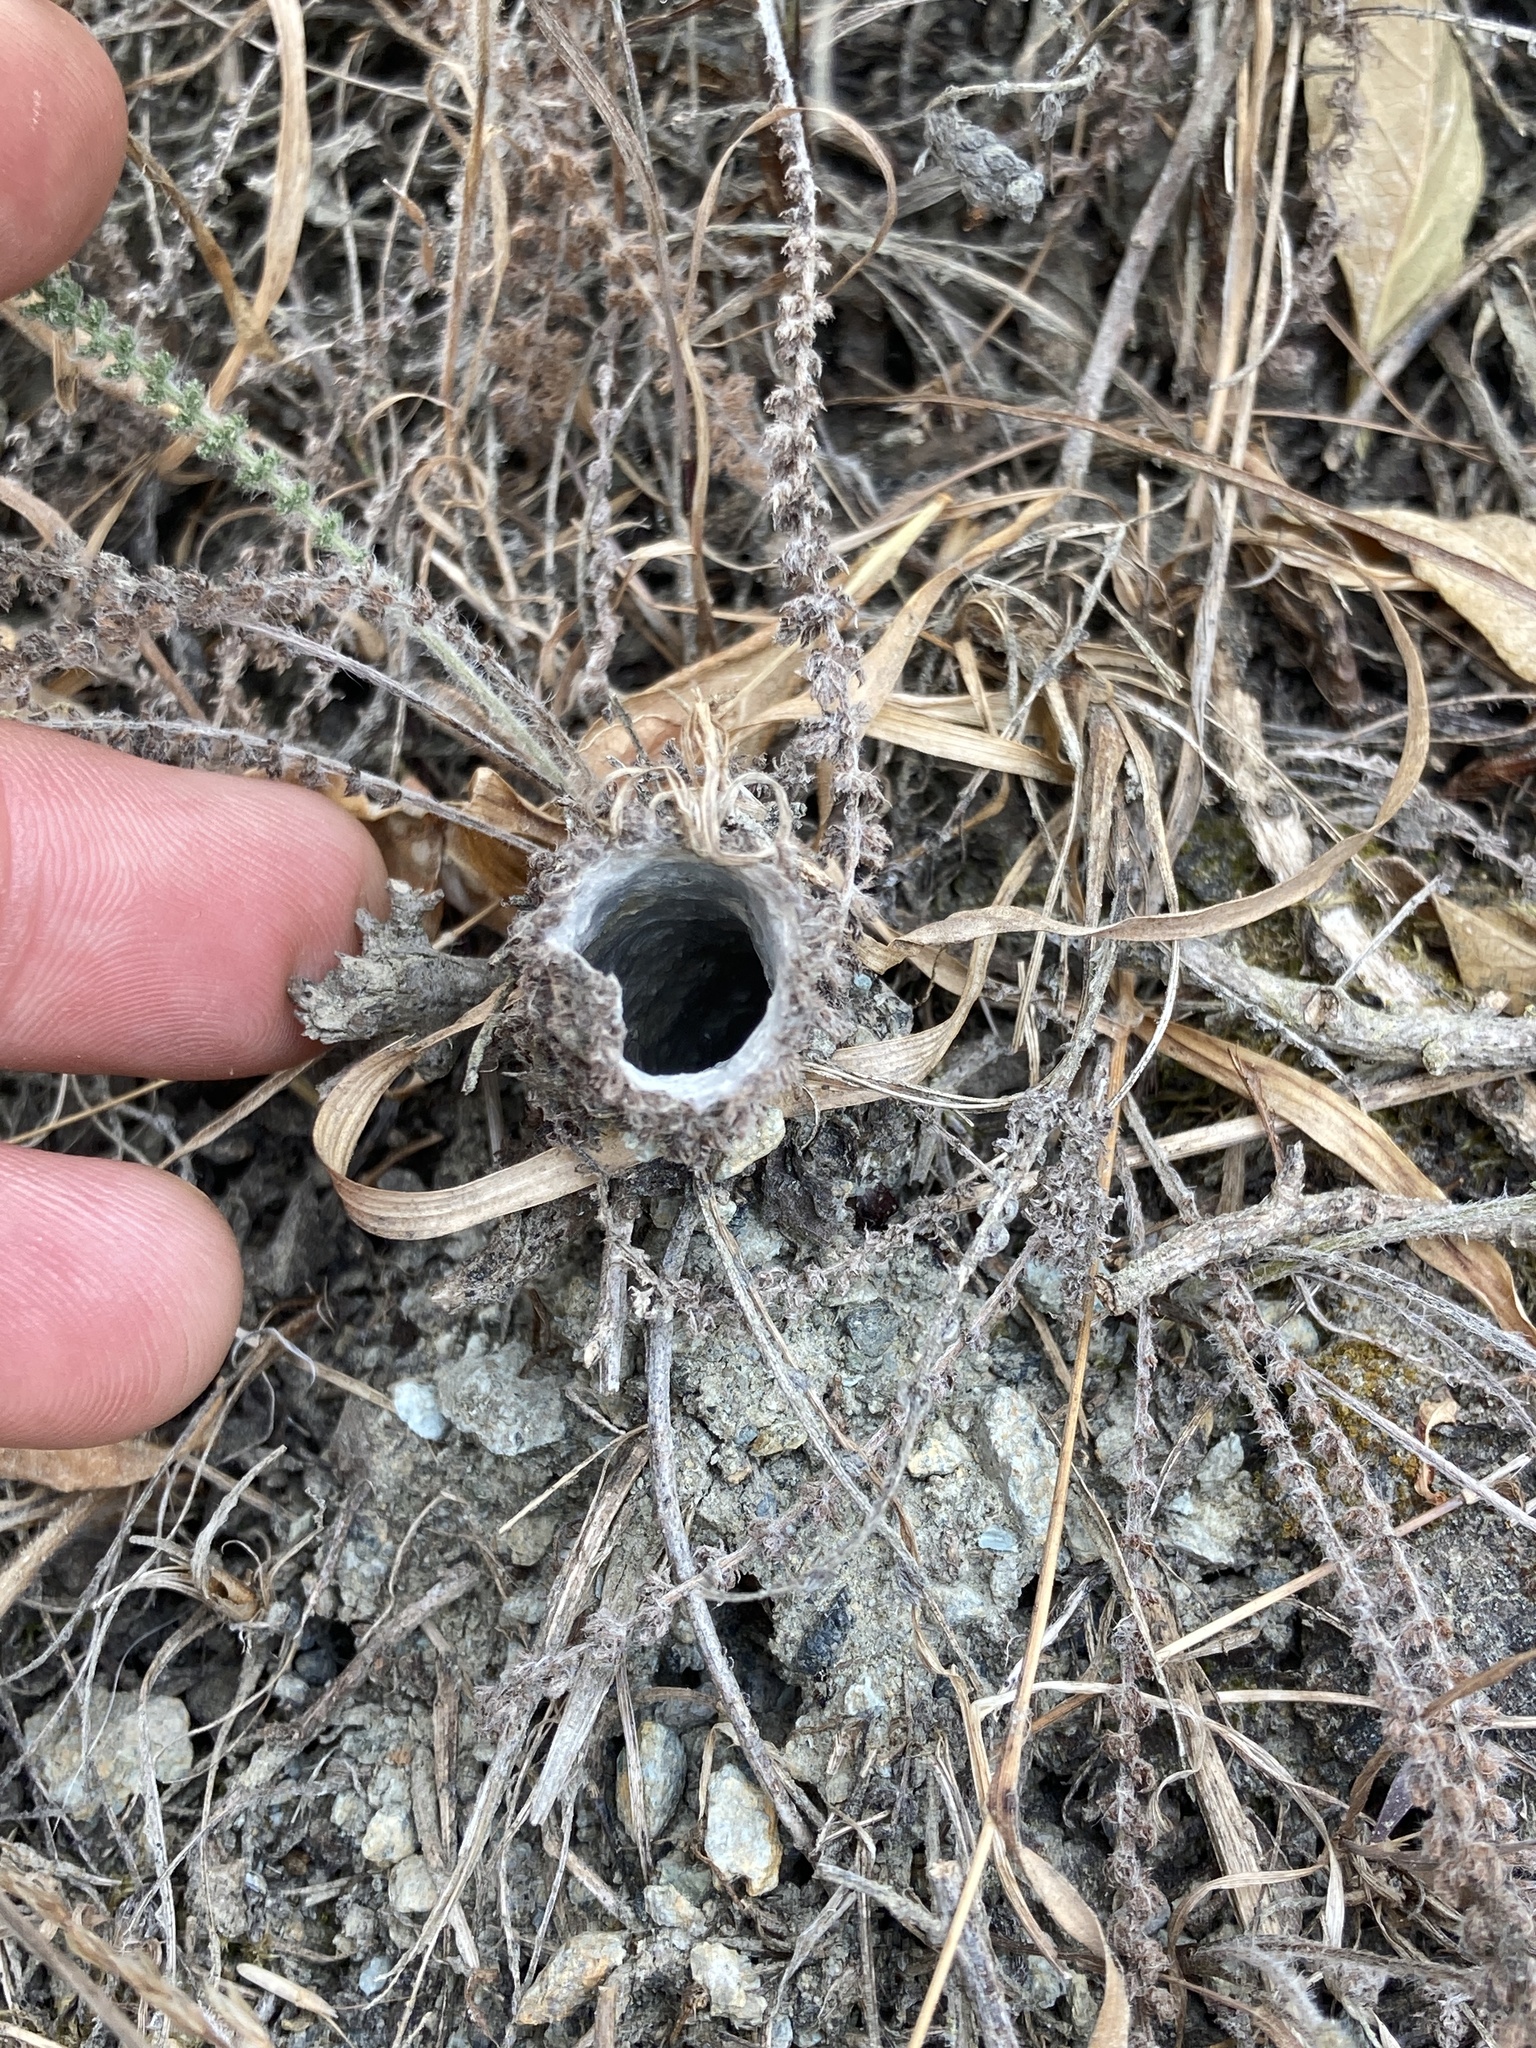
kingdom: Animalia
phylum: Arthropoda
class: Arachnida
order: Araneae
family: Antrodiaetidae
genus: Atypoides
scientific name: Atypoides riversi
